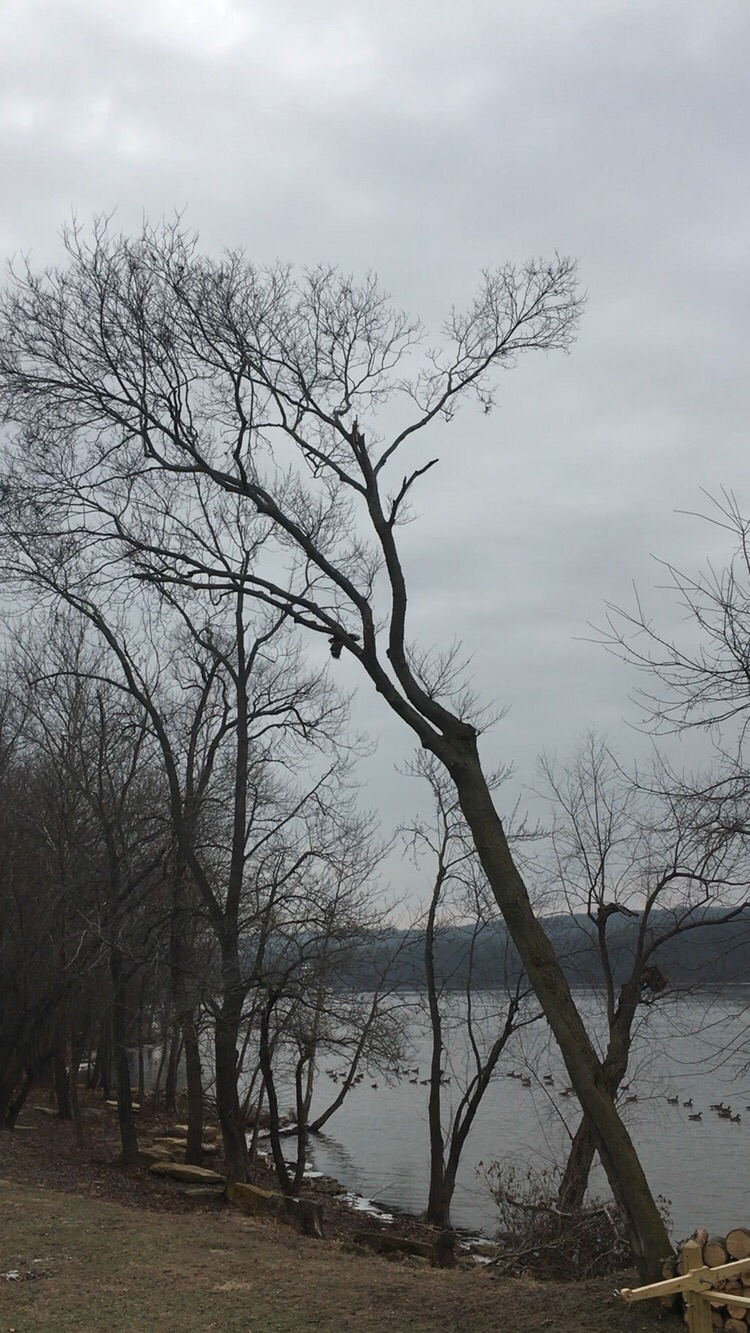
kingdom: Animalia
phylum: Chordata
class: Aves
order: Accipitriformes
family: Accipitridae
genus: Haliaeetus
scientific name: Haliaeetus leucocephalus
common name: Bald eagle
